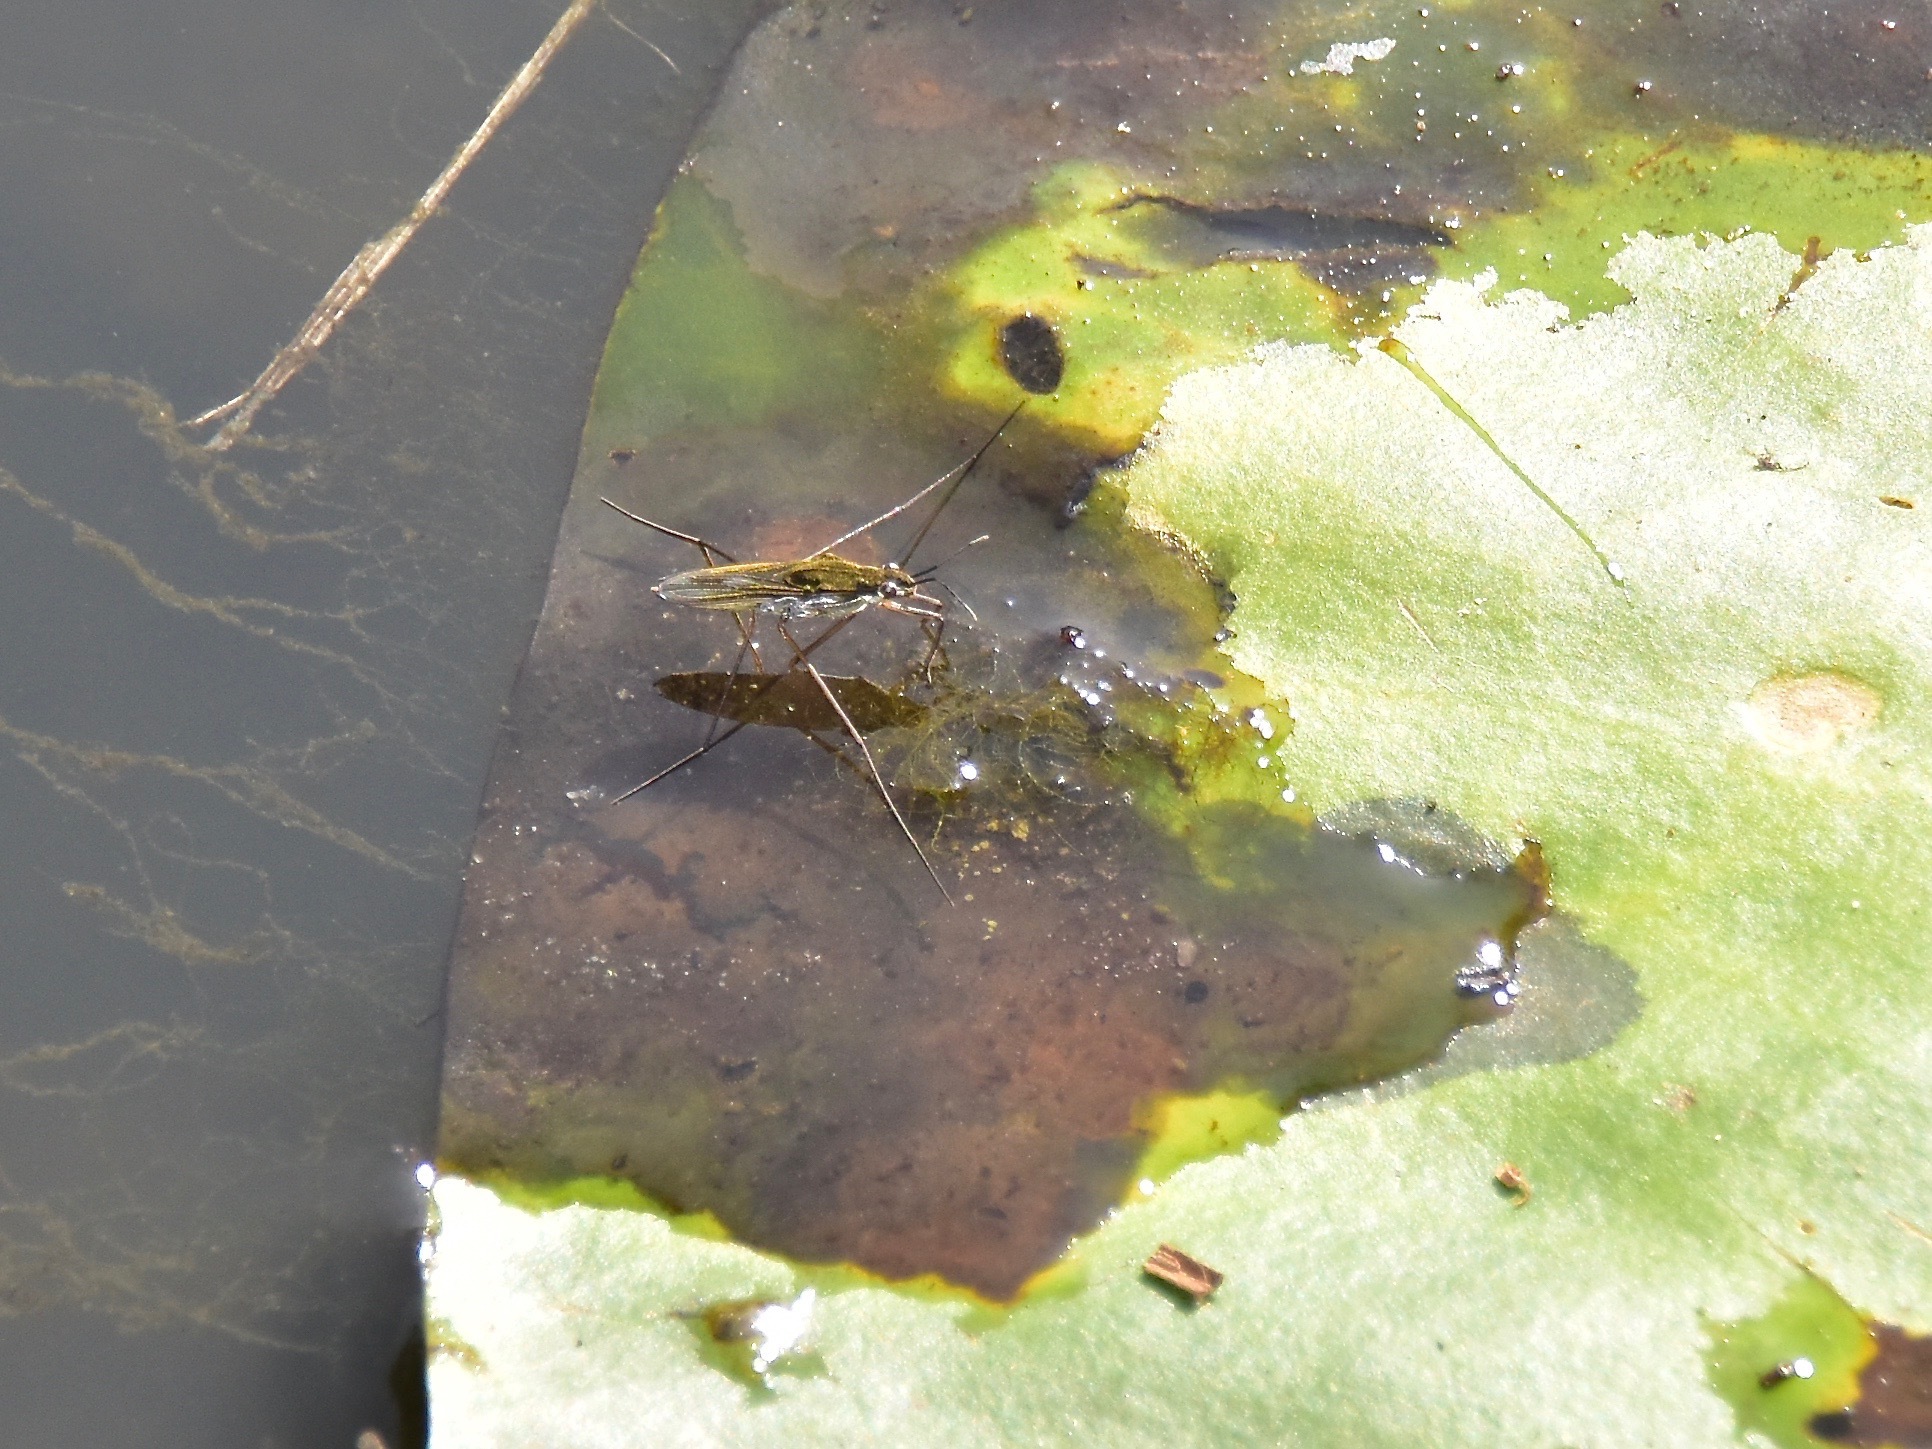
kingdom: Animalia
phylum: Arthropoda
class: Insecta
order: Hemiptera
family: Gerridae
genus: Gerris
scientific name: Gerris
